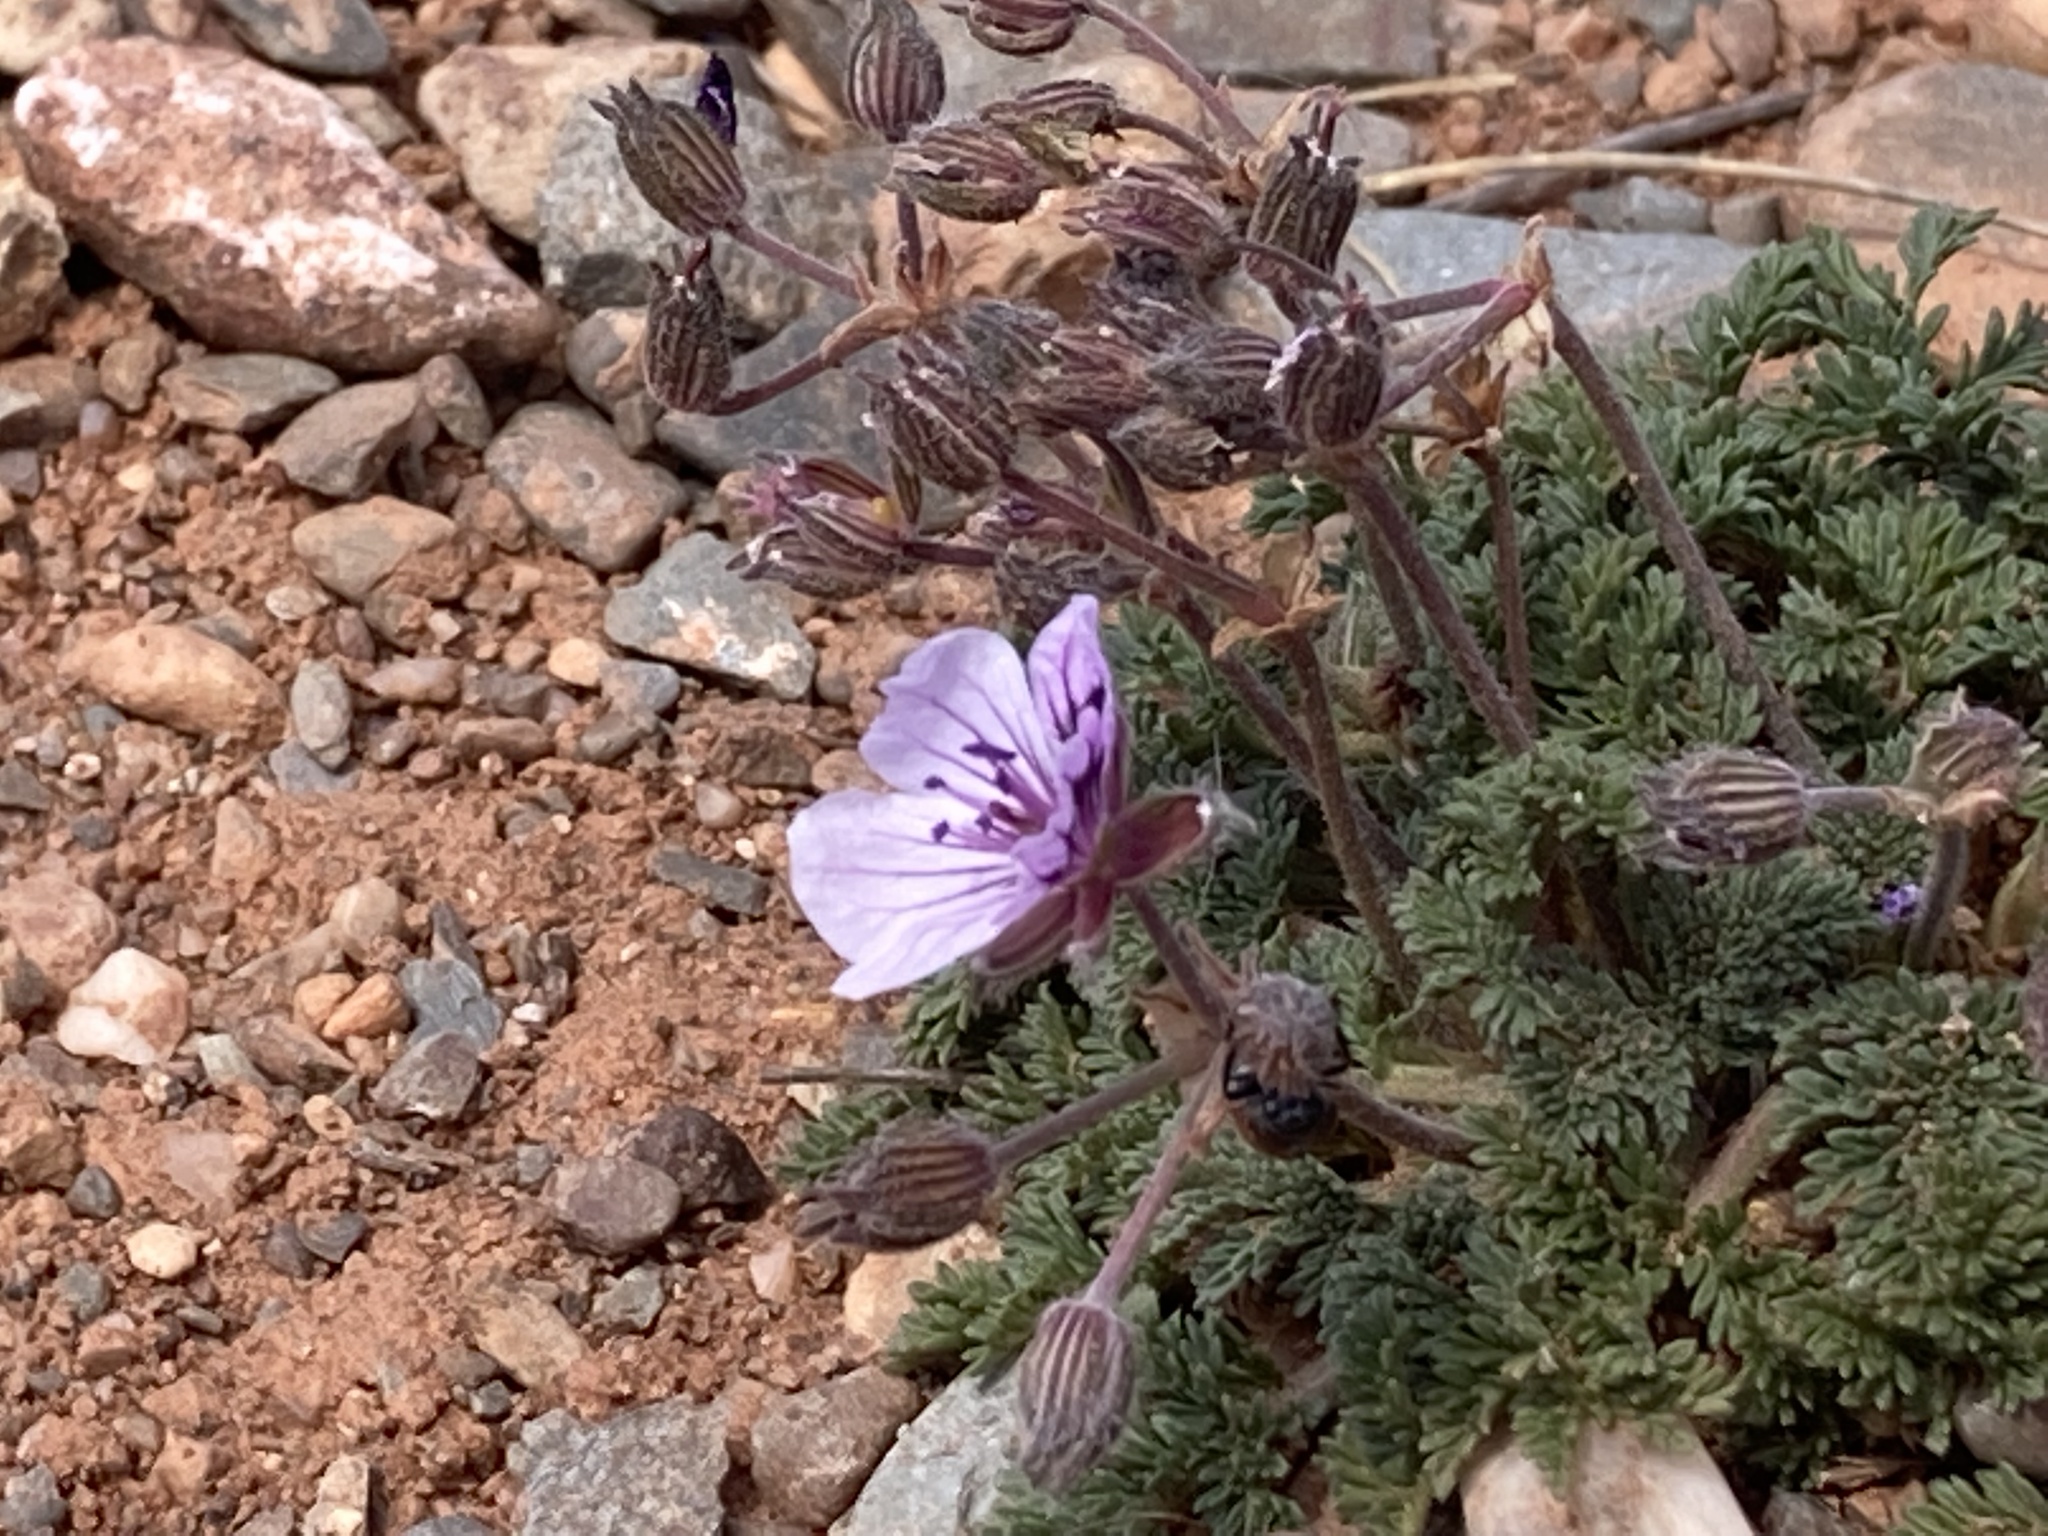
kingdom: Plantae
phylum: Tracheophyta
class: Magnoliopsida
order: Geraniales
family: Geraniaceae
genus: Erodium
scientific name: Erodium glandulosum
